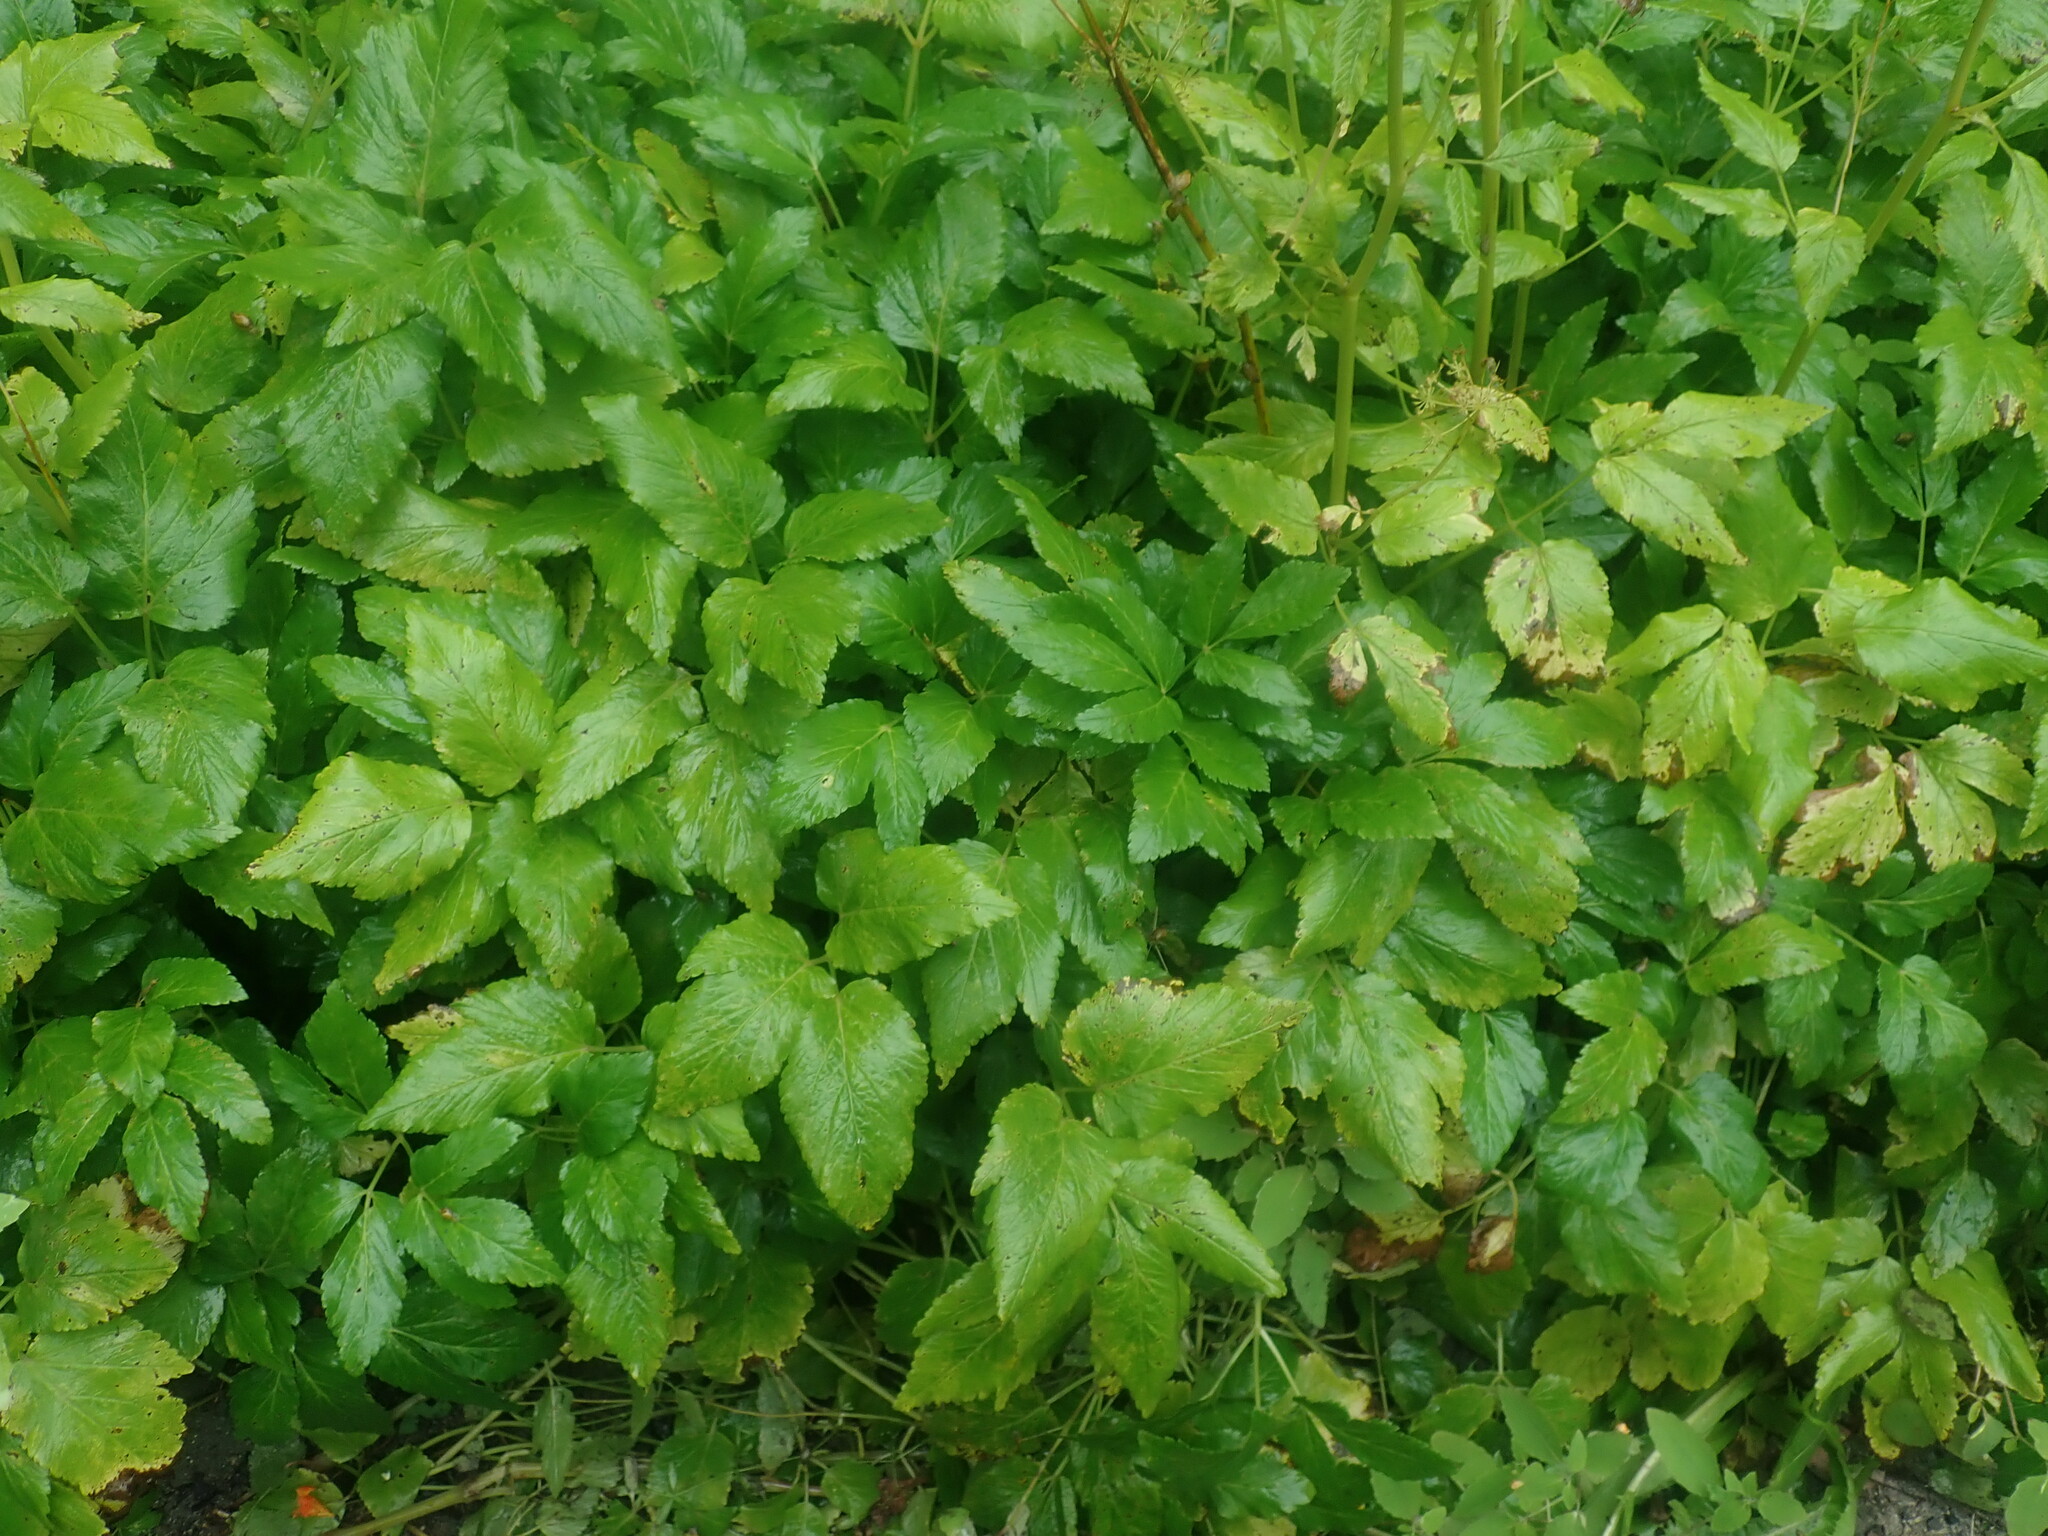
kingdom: Plantae
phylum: Tracheophyta
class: Magnoliopsida
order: Apiales
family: Apiaceae
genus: Aegopodium
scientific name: Aegopodium podagraria
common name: Ground-elder
